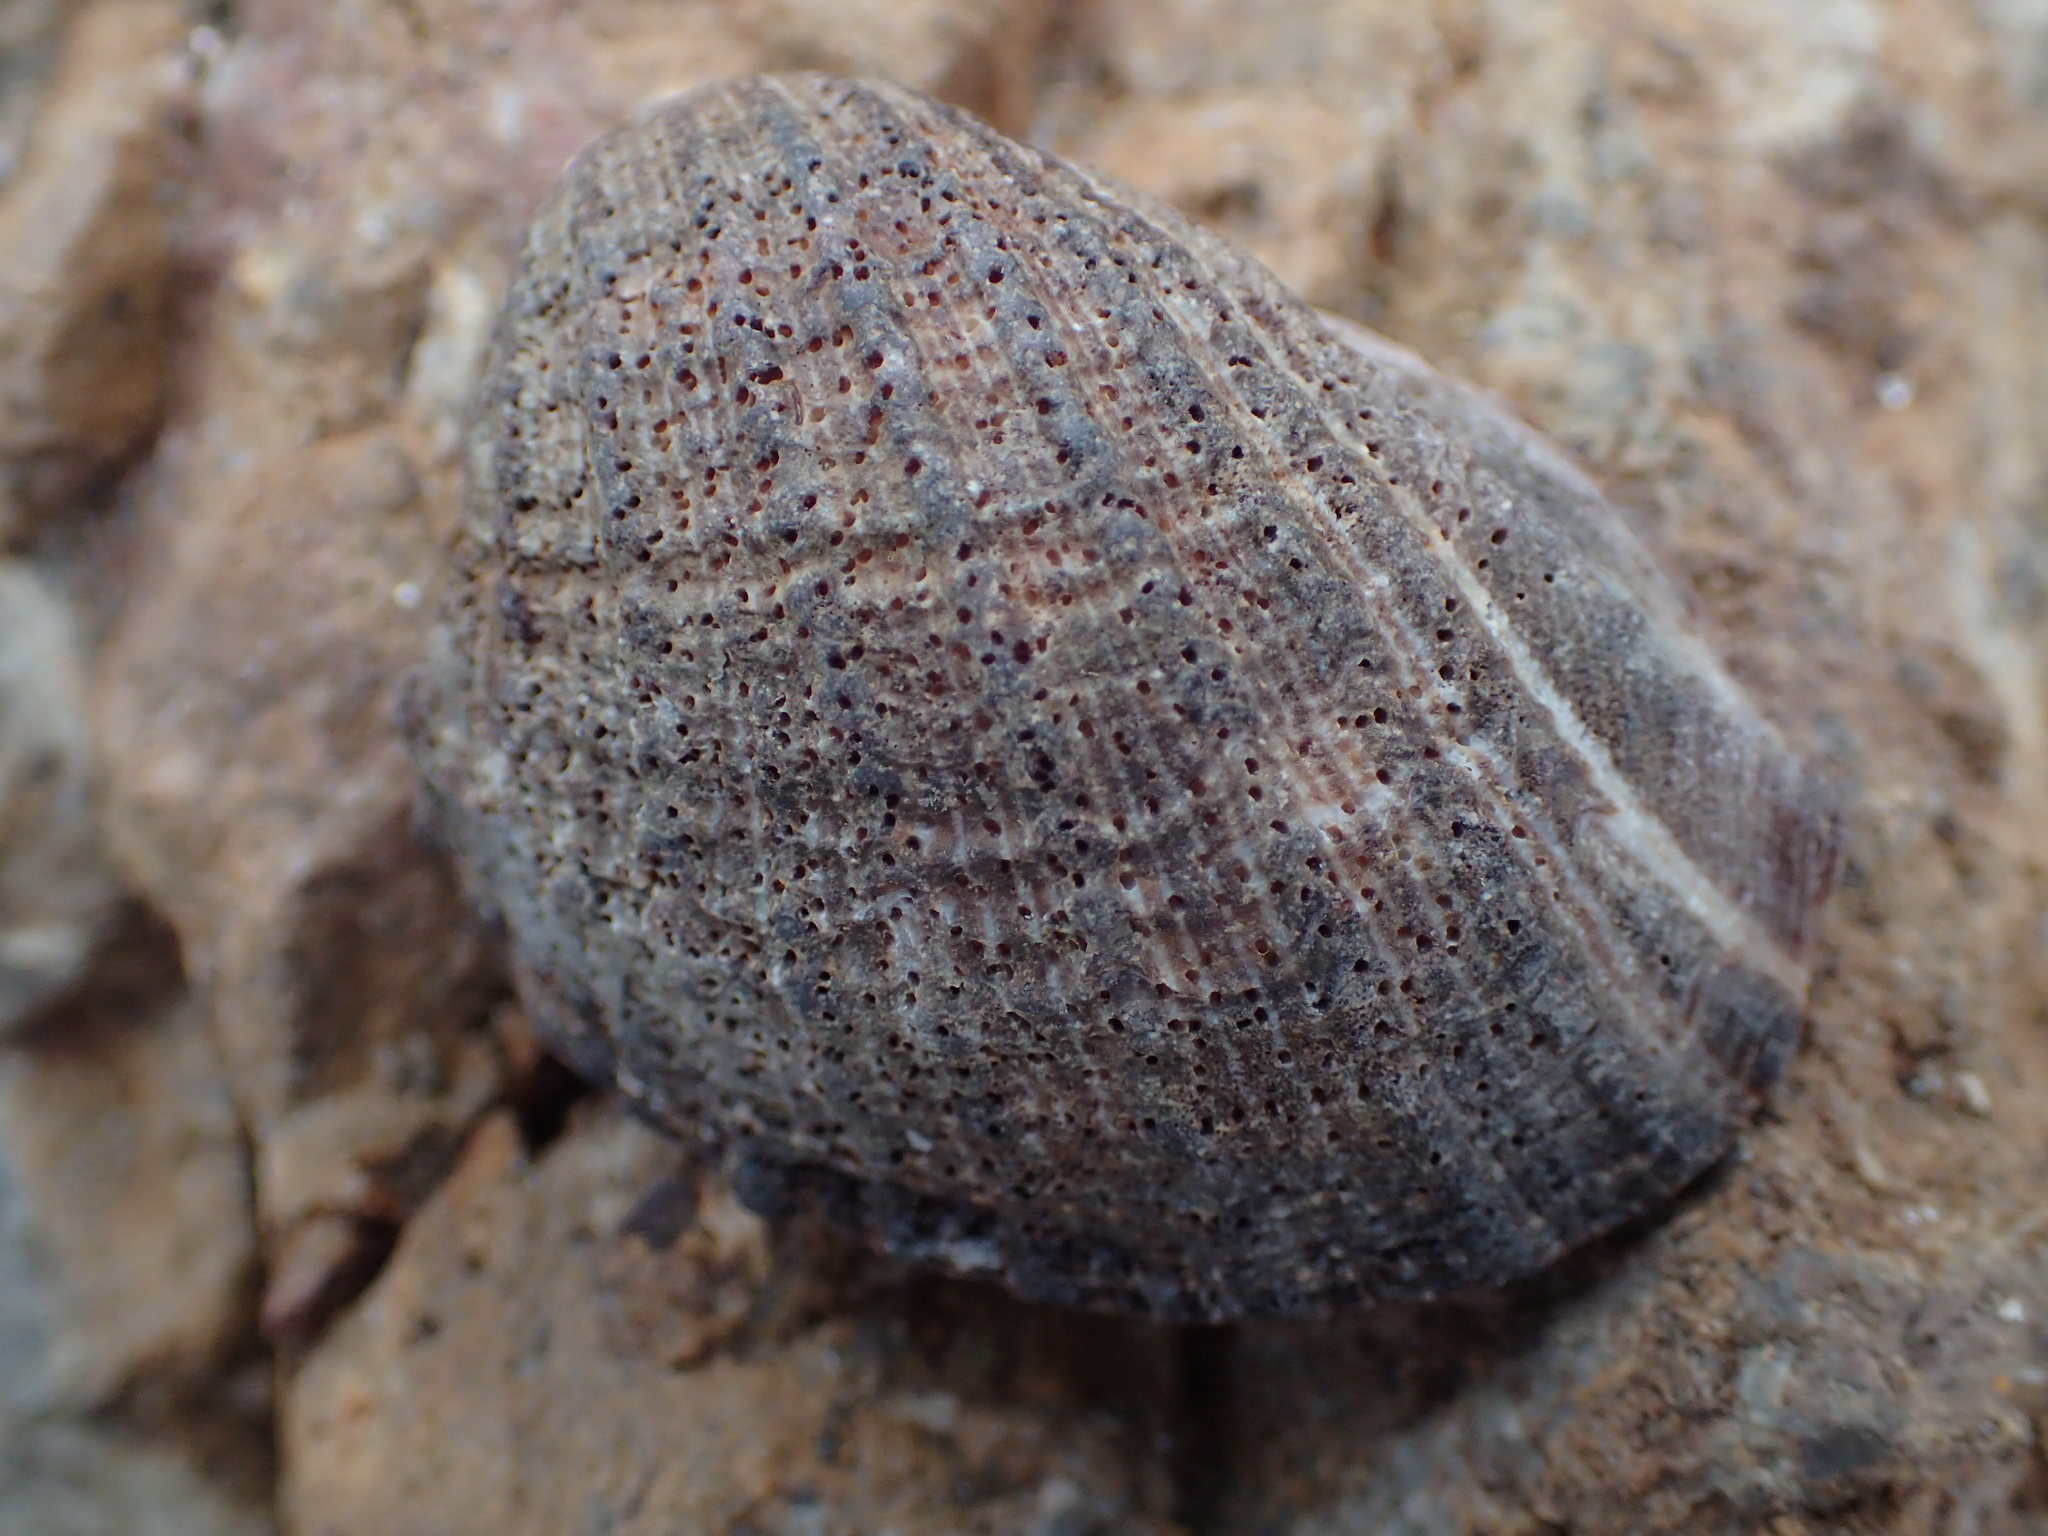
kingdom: Animalia
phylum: Mollusca
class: Gastropoda
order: Neogastropoda
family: Muricidae
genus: Concholepas
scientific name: Concholepas concholepas
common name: Chilean abalone
